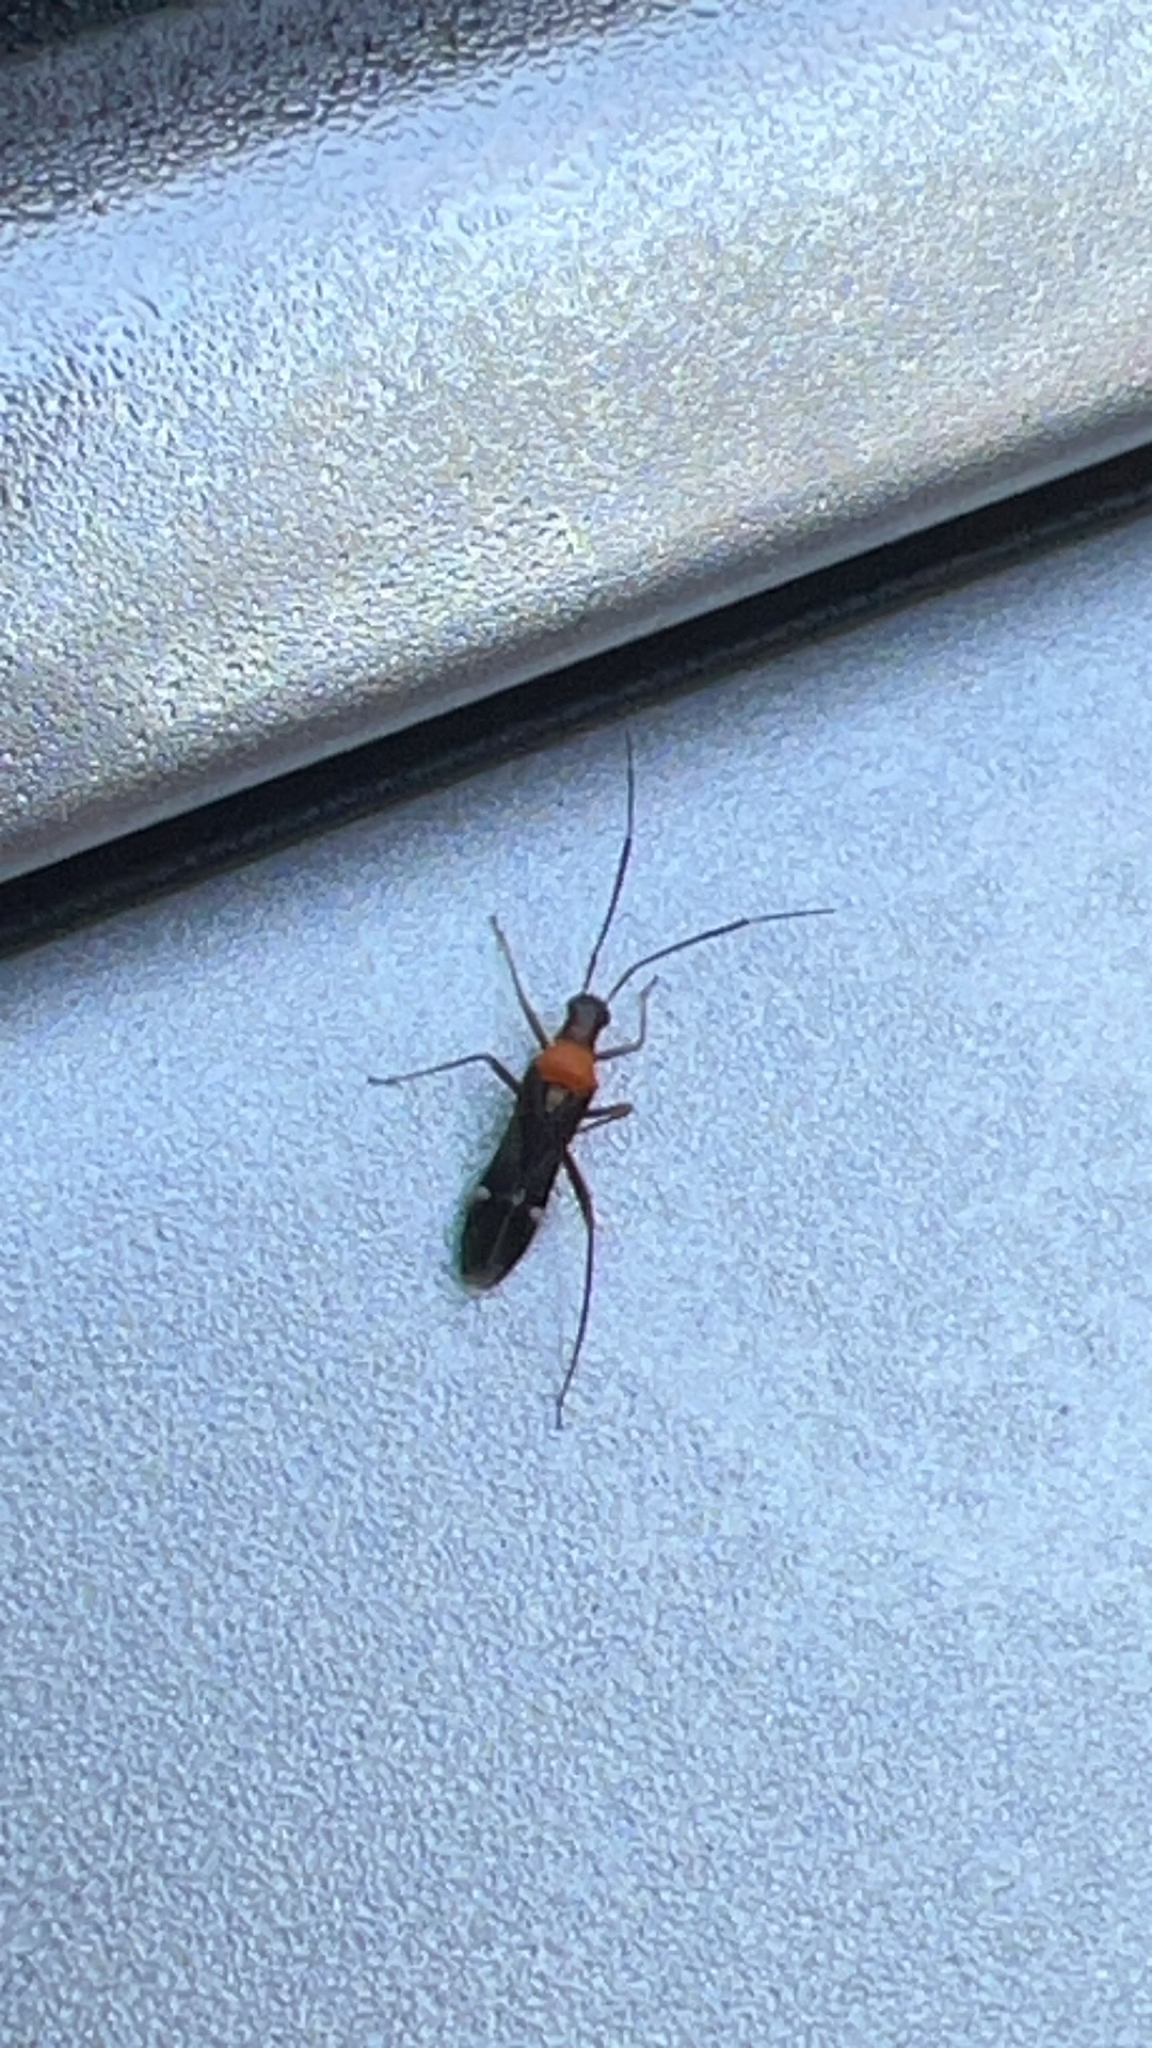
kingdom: Animalia
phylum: Arthropoda
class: Insecta
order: Hemiptera
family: Miridae
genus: Pseudoxenetus
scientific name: Pseudoxenetus regalis
